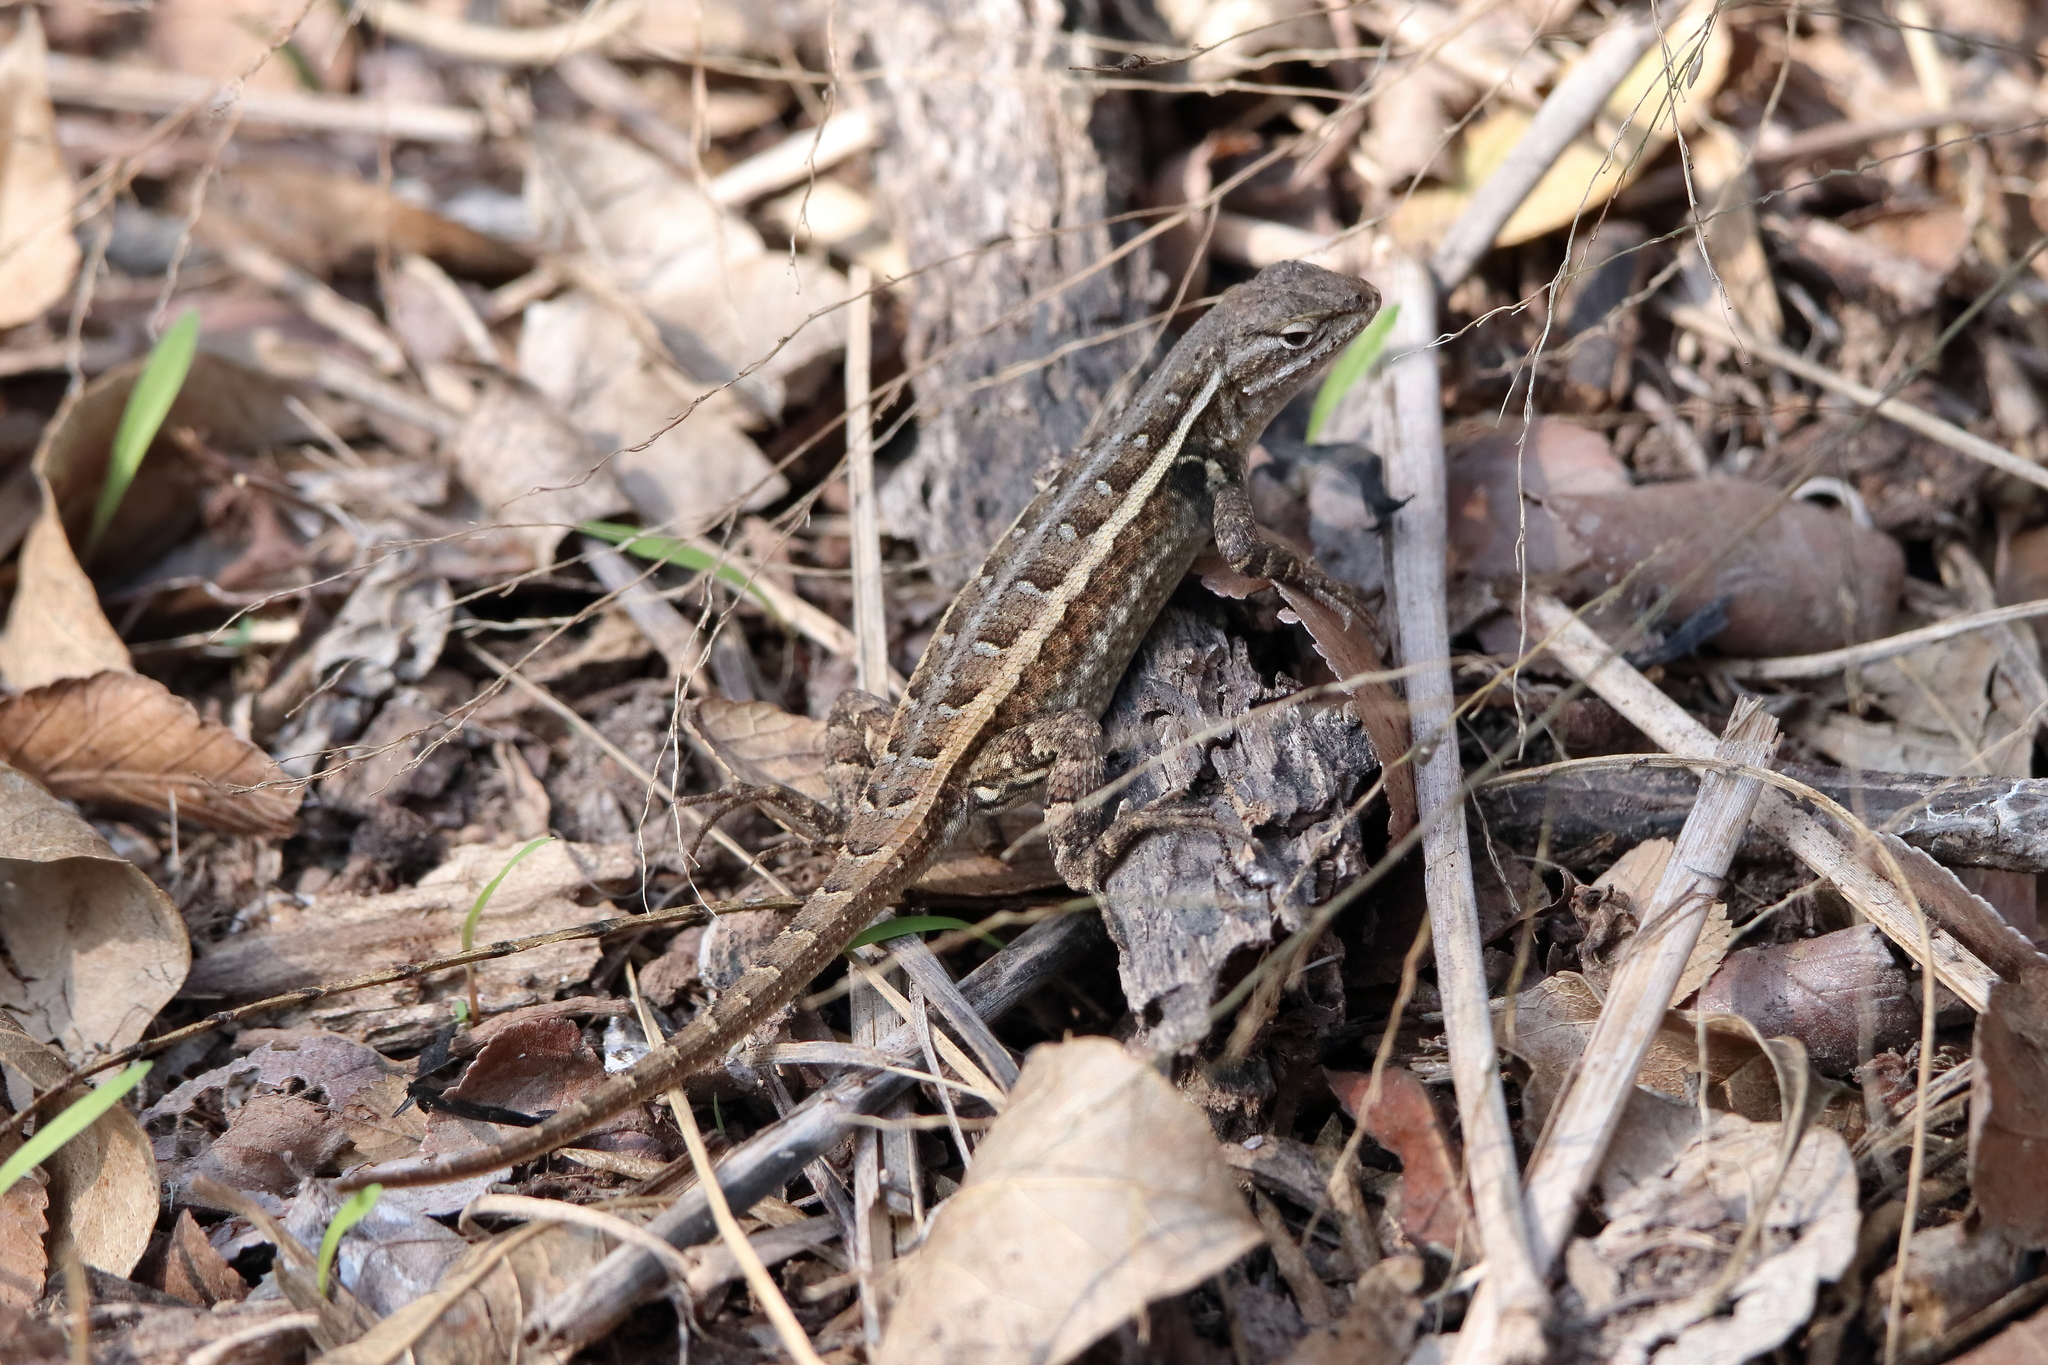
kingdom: Animalia
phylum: Chordata
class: Squamata
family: Phrynosomatidae
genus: Sceloporus
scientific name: Sceloporus variabilis
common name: Rosebelly lizard
